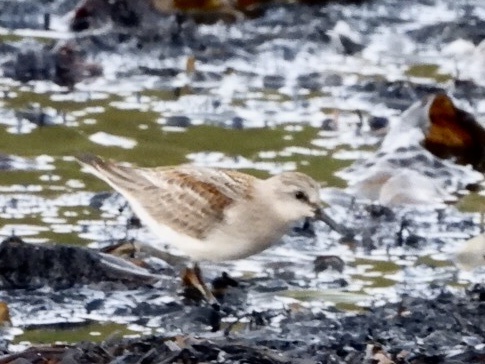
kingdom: Animalia
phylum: Chordata
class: Aves
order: Charadriiformes
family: Scolopacidae
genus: Calidris
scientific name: Calidris ruficollis
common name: Red-necked stint
